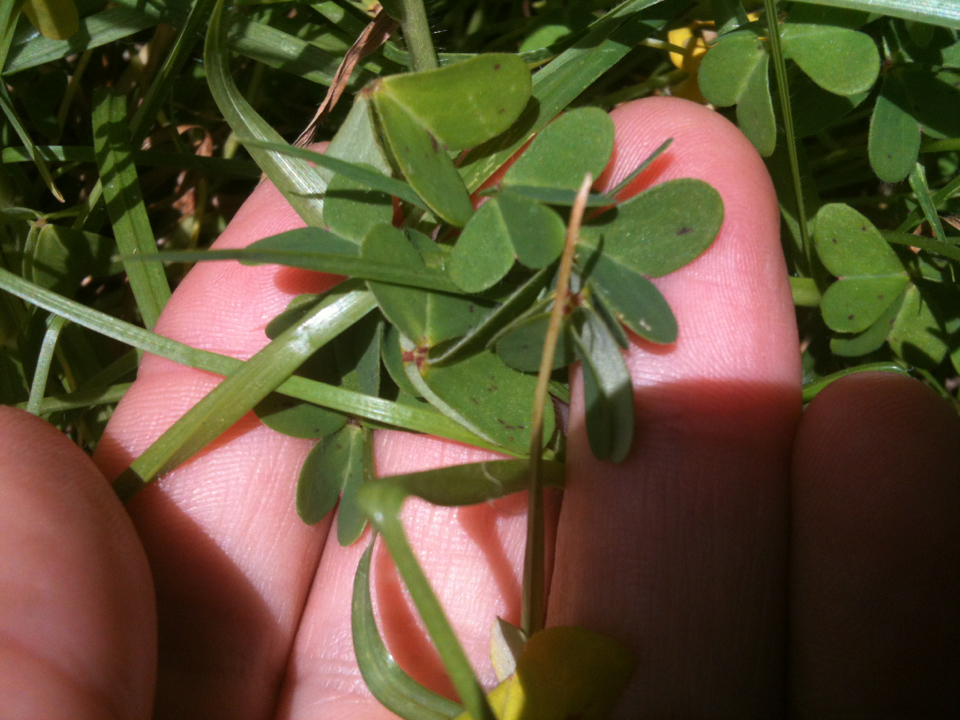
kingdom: Plantae
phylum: Tracheophyta
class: Magnoliopsida
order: Oxalidales
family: Oxalidaceae
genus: Oxalis
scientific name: Oxalis pes-caprae
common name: Bermuda-buttercup
